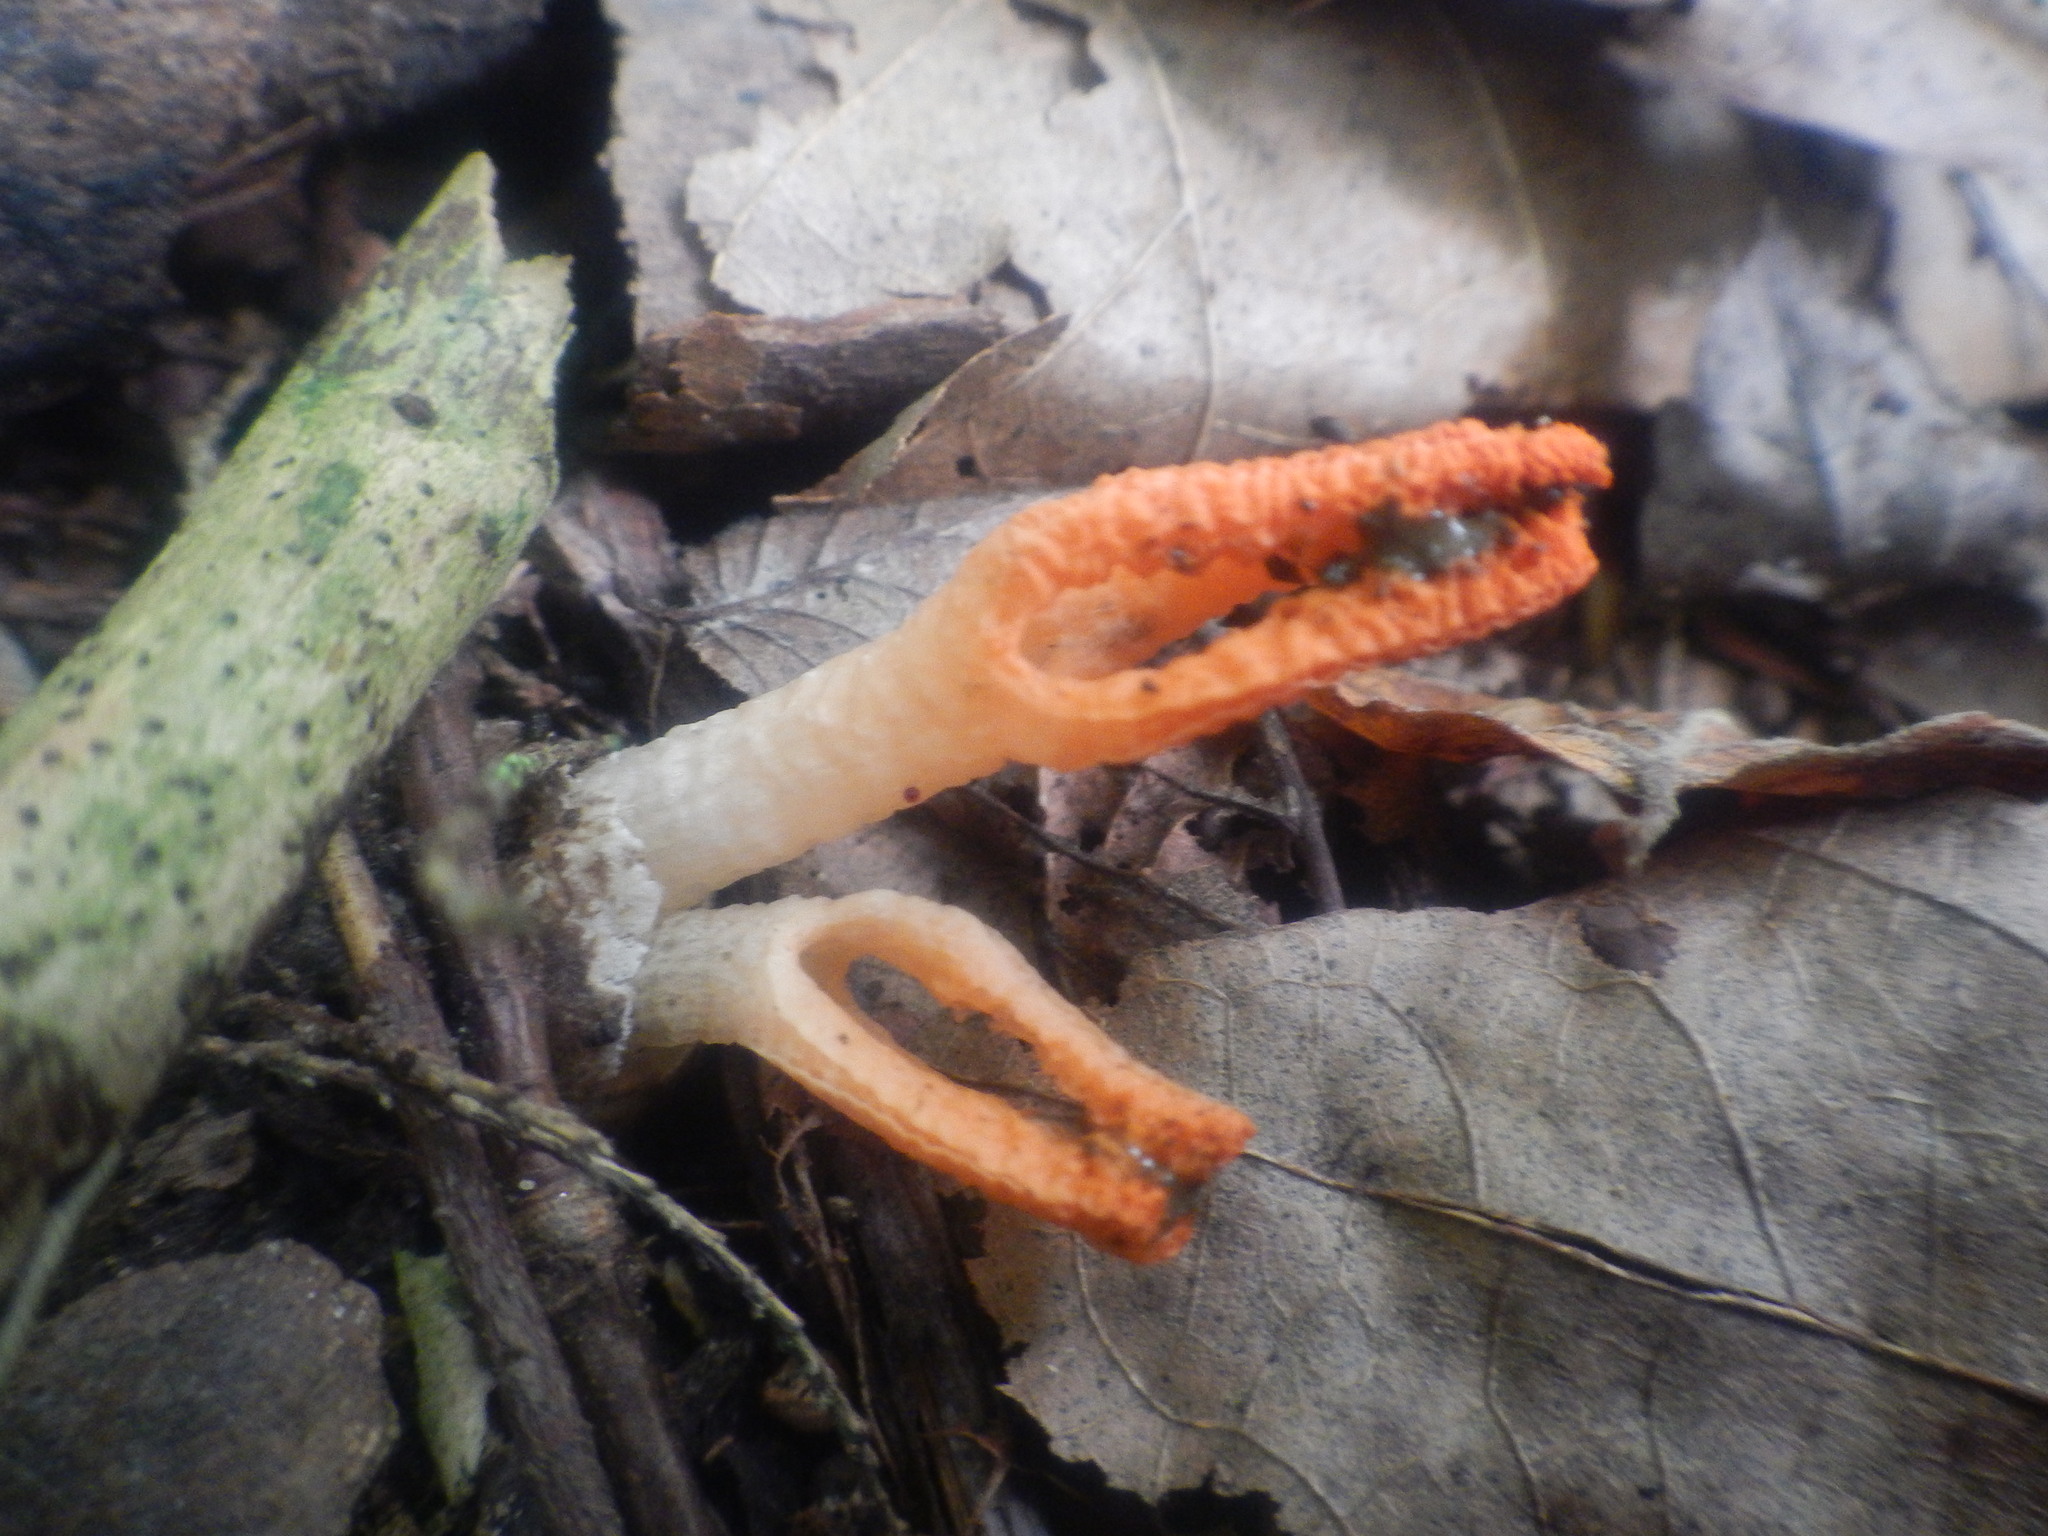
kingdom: Fungi
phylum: Basidiomycota
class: Agaricomycetes
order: Phallales
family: Phallaceae
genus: Pseudocolus
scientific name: Pseudocolus fusiformis
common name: Stinky squid
